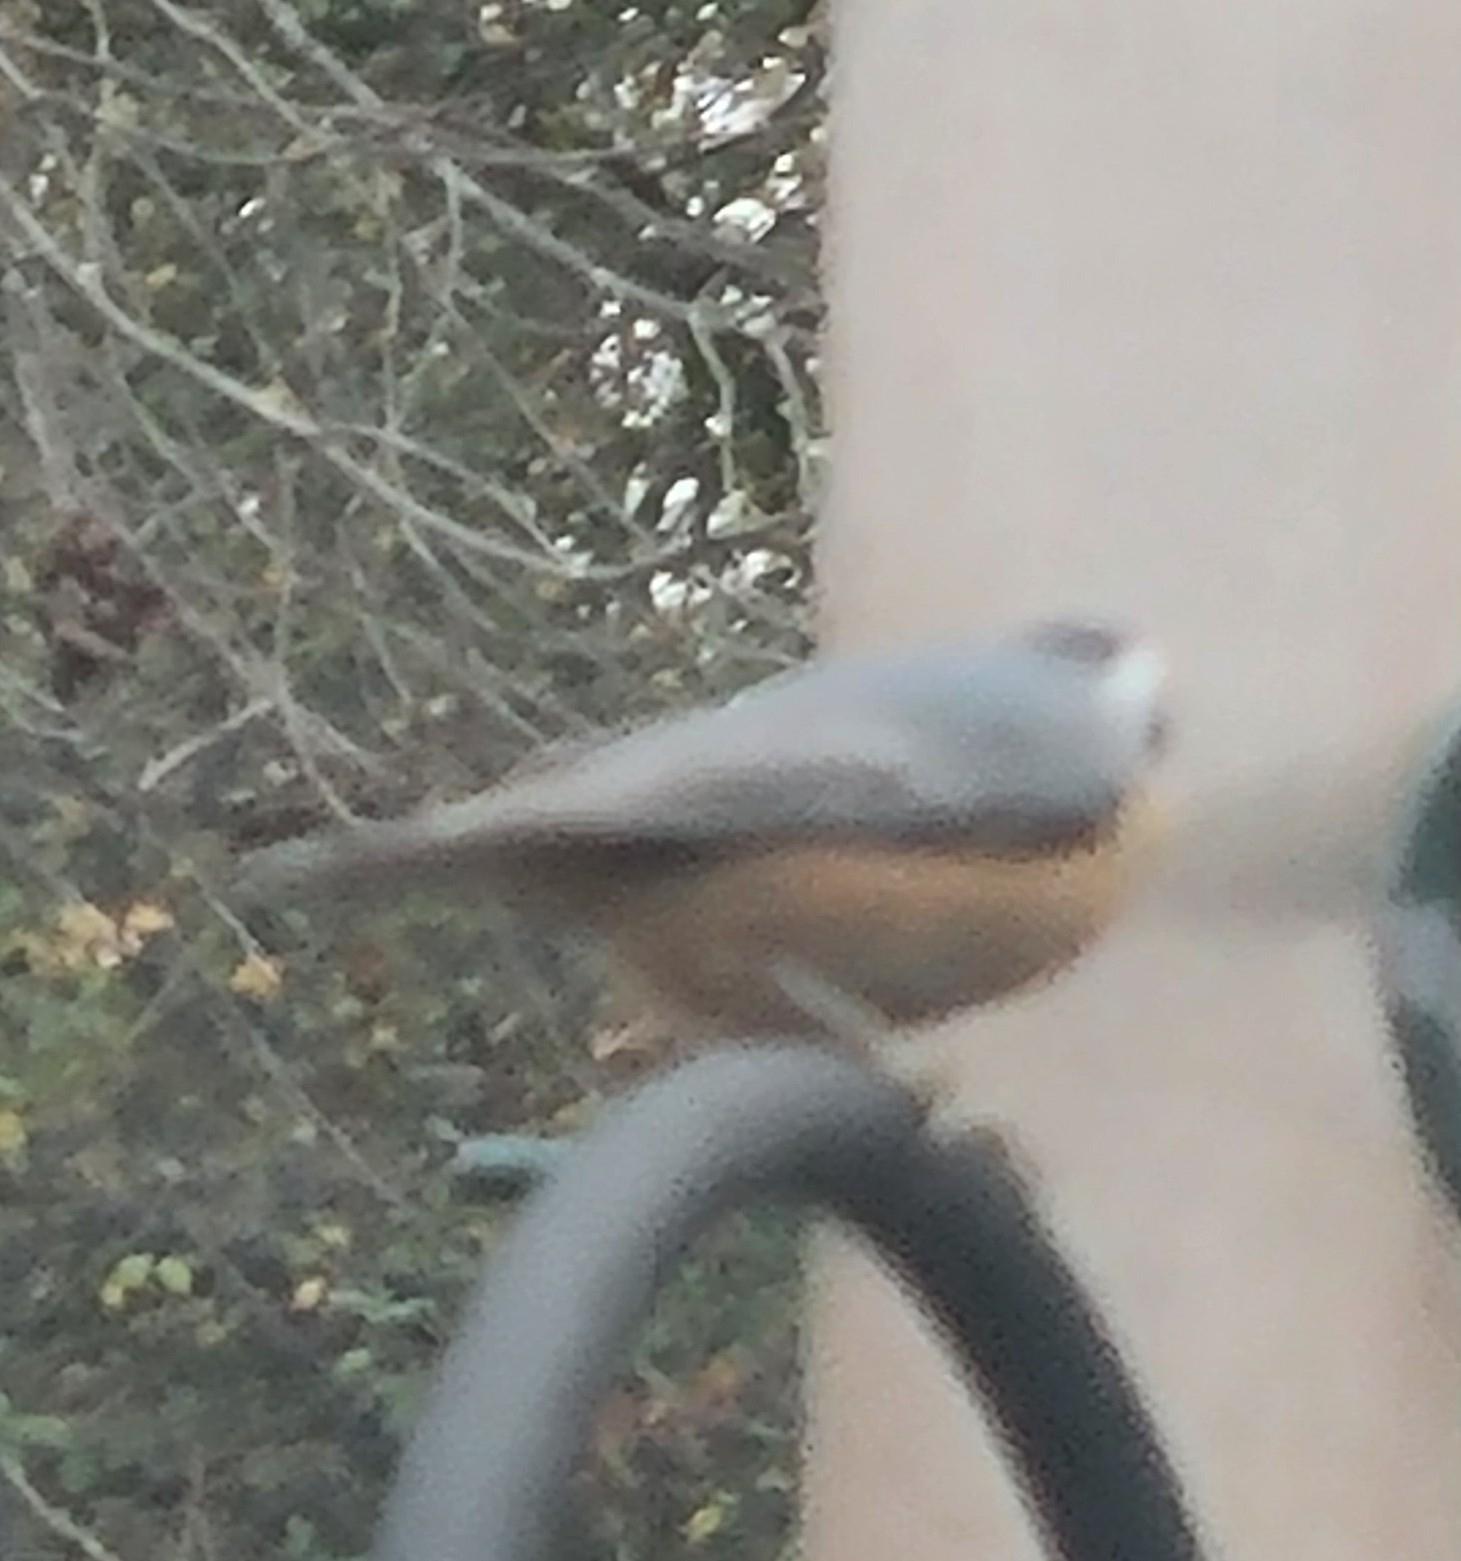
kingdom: Animalia
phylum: Chordata
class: Aves
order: Passeriformes
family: Sittidae
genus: Sitta
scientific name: Sitta canadensis
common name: Red-breasted nuthatch
